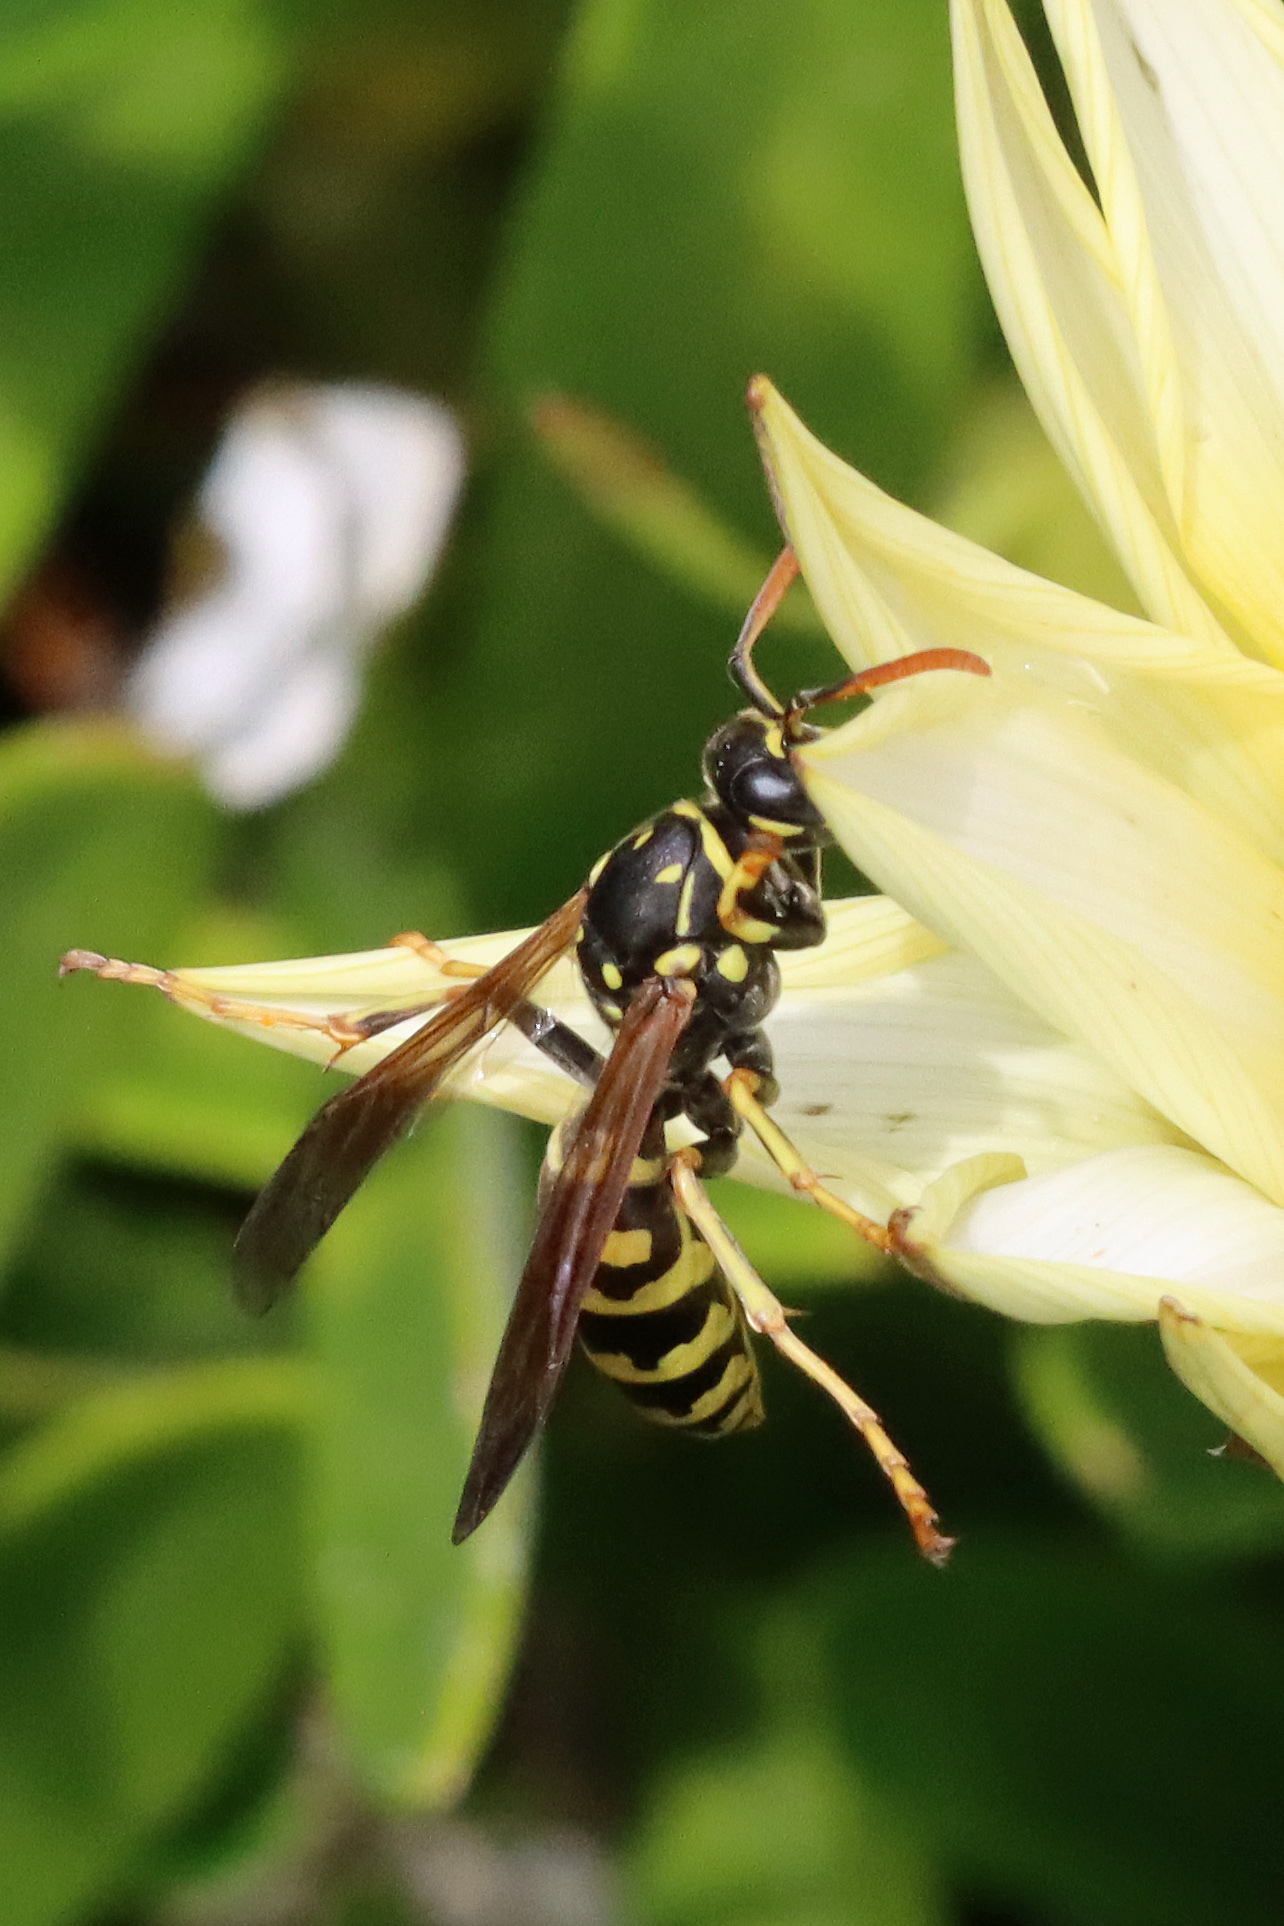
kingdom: Animalia
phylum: Arthropoda
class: Insecta
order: Hymenoptera
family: Eumenidae
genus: Polistes
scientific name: Polistes dominula
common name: Paper wasp
